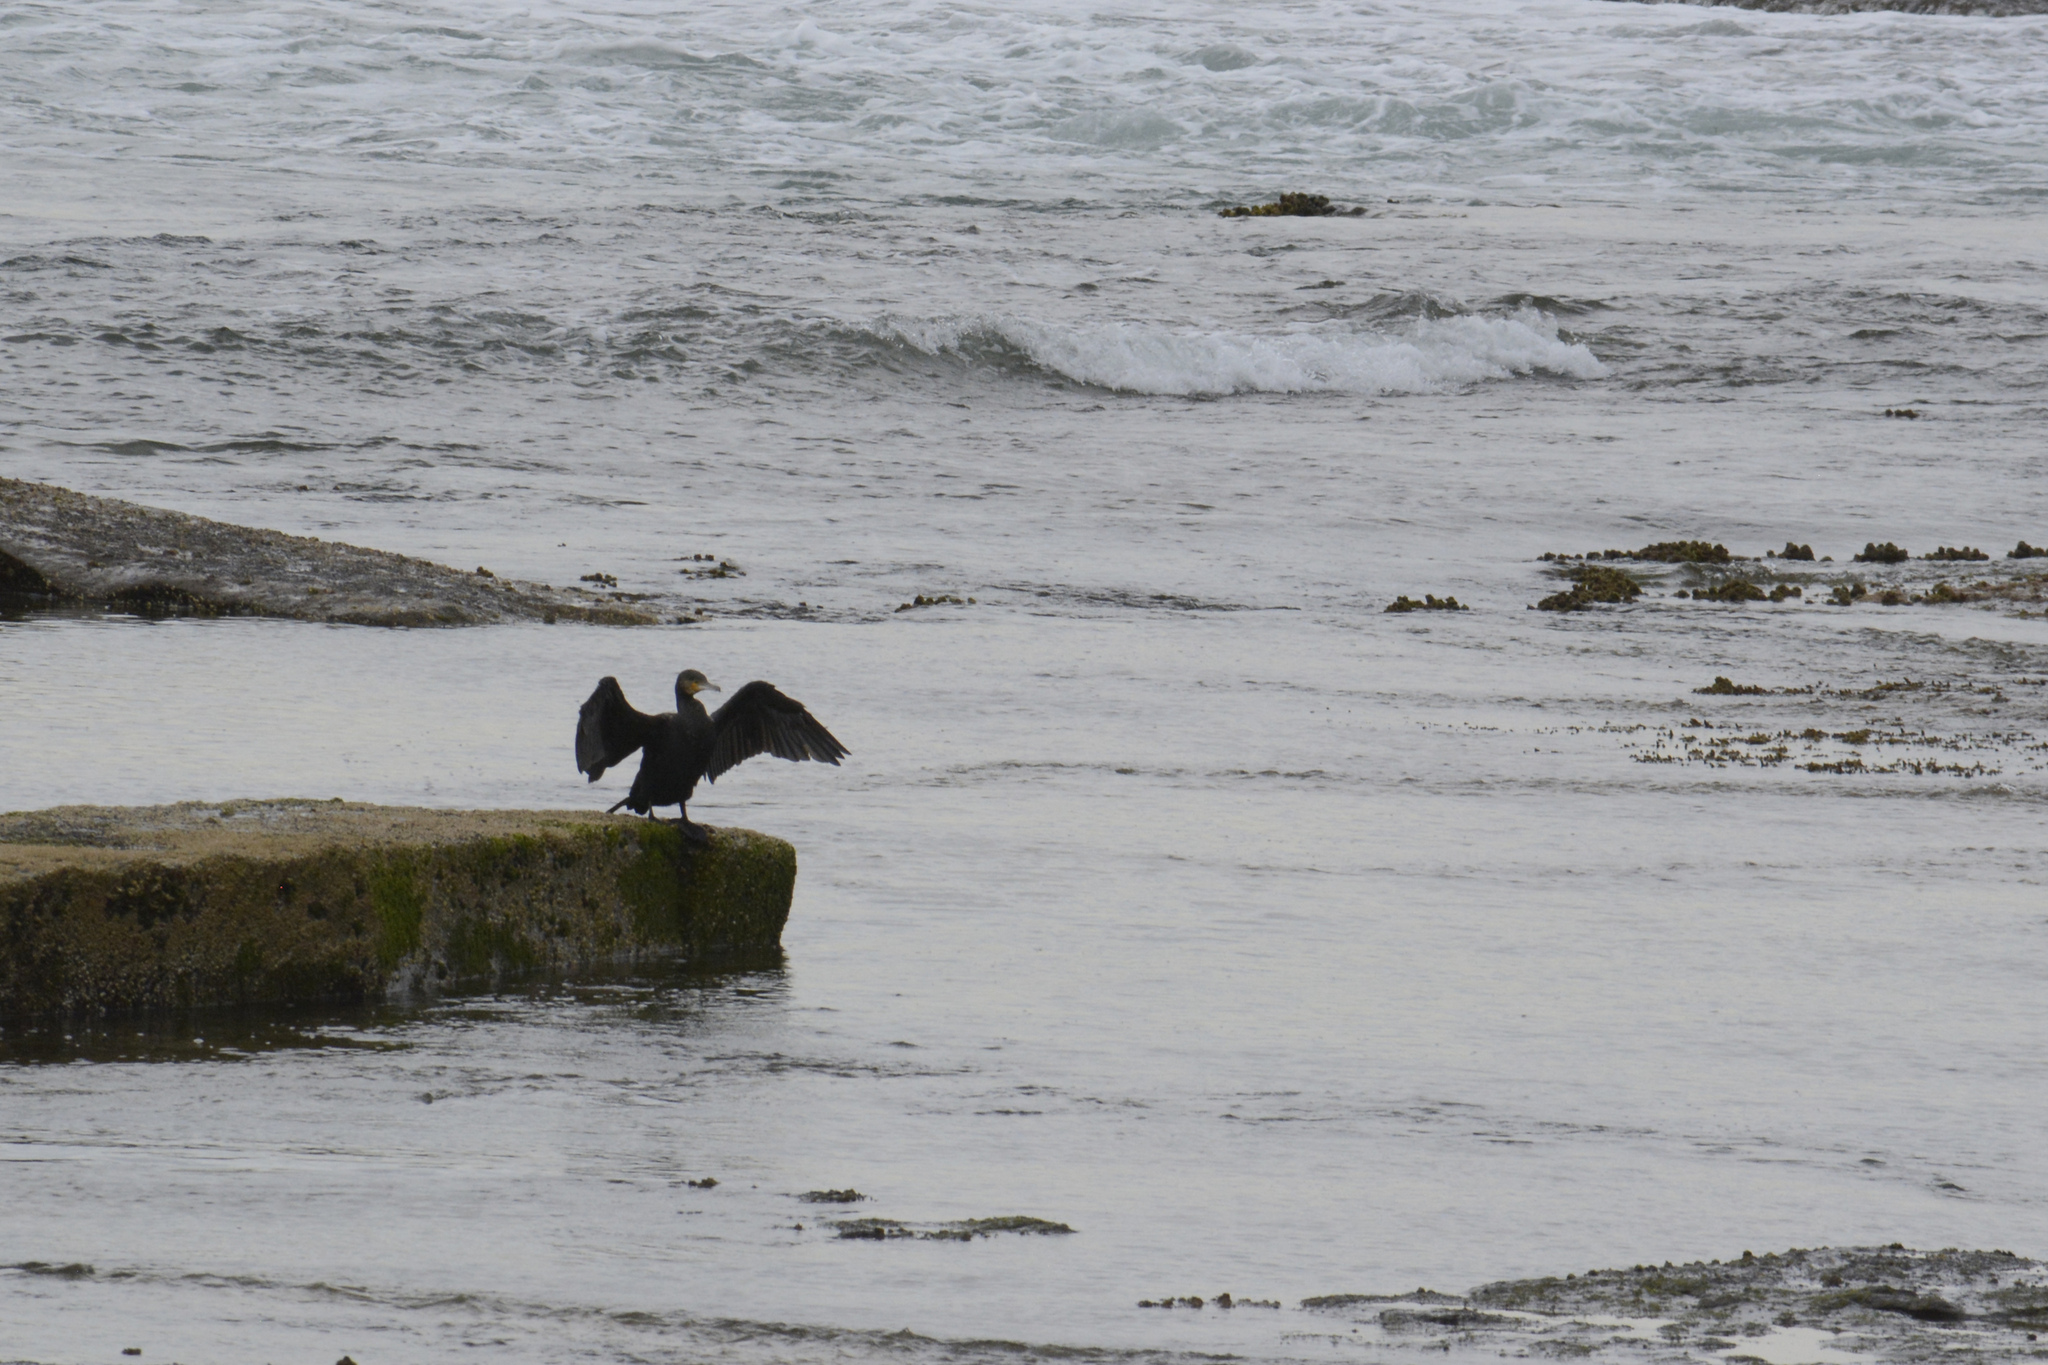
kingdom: Animalia
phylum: Chordata
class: Aves
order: Suliformes
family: Phalacrocoracidae
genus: Phalacrocorax
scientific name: Phalacrocorax carbo
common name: Great cormorant
